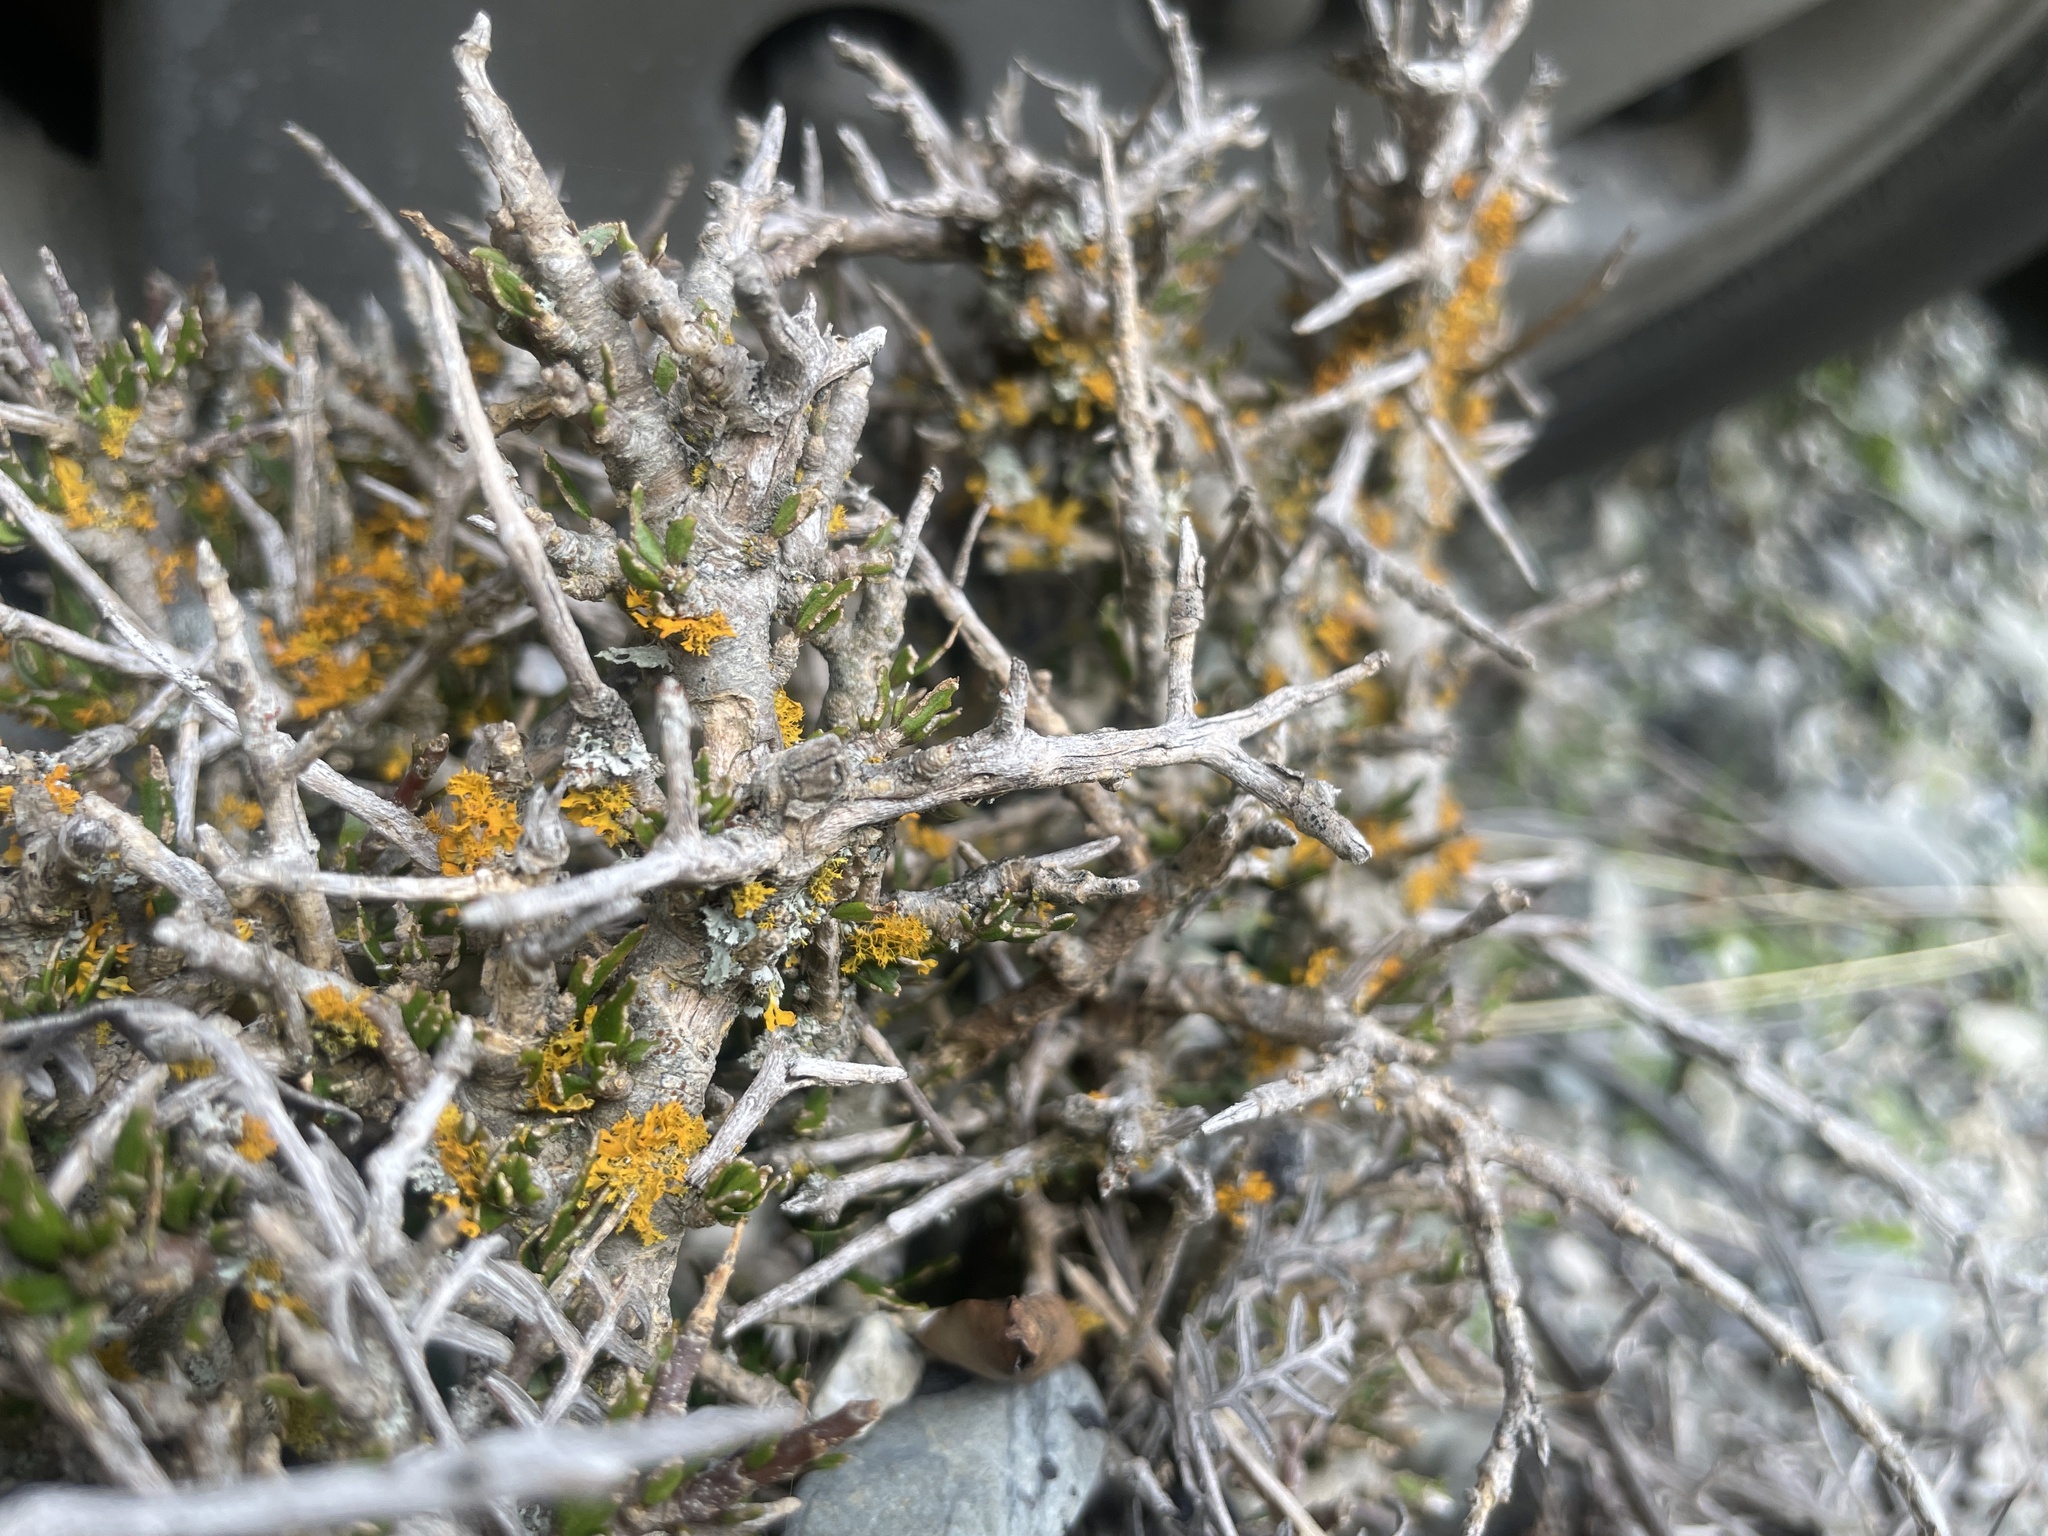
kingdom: Plantae
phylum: Tracheophyta
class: Magnoliopsida
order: Malpighiales
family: Violaceae
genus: Melicytus
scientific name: Melicytus alpinus
